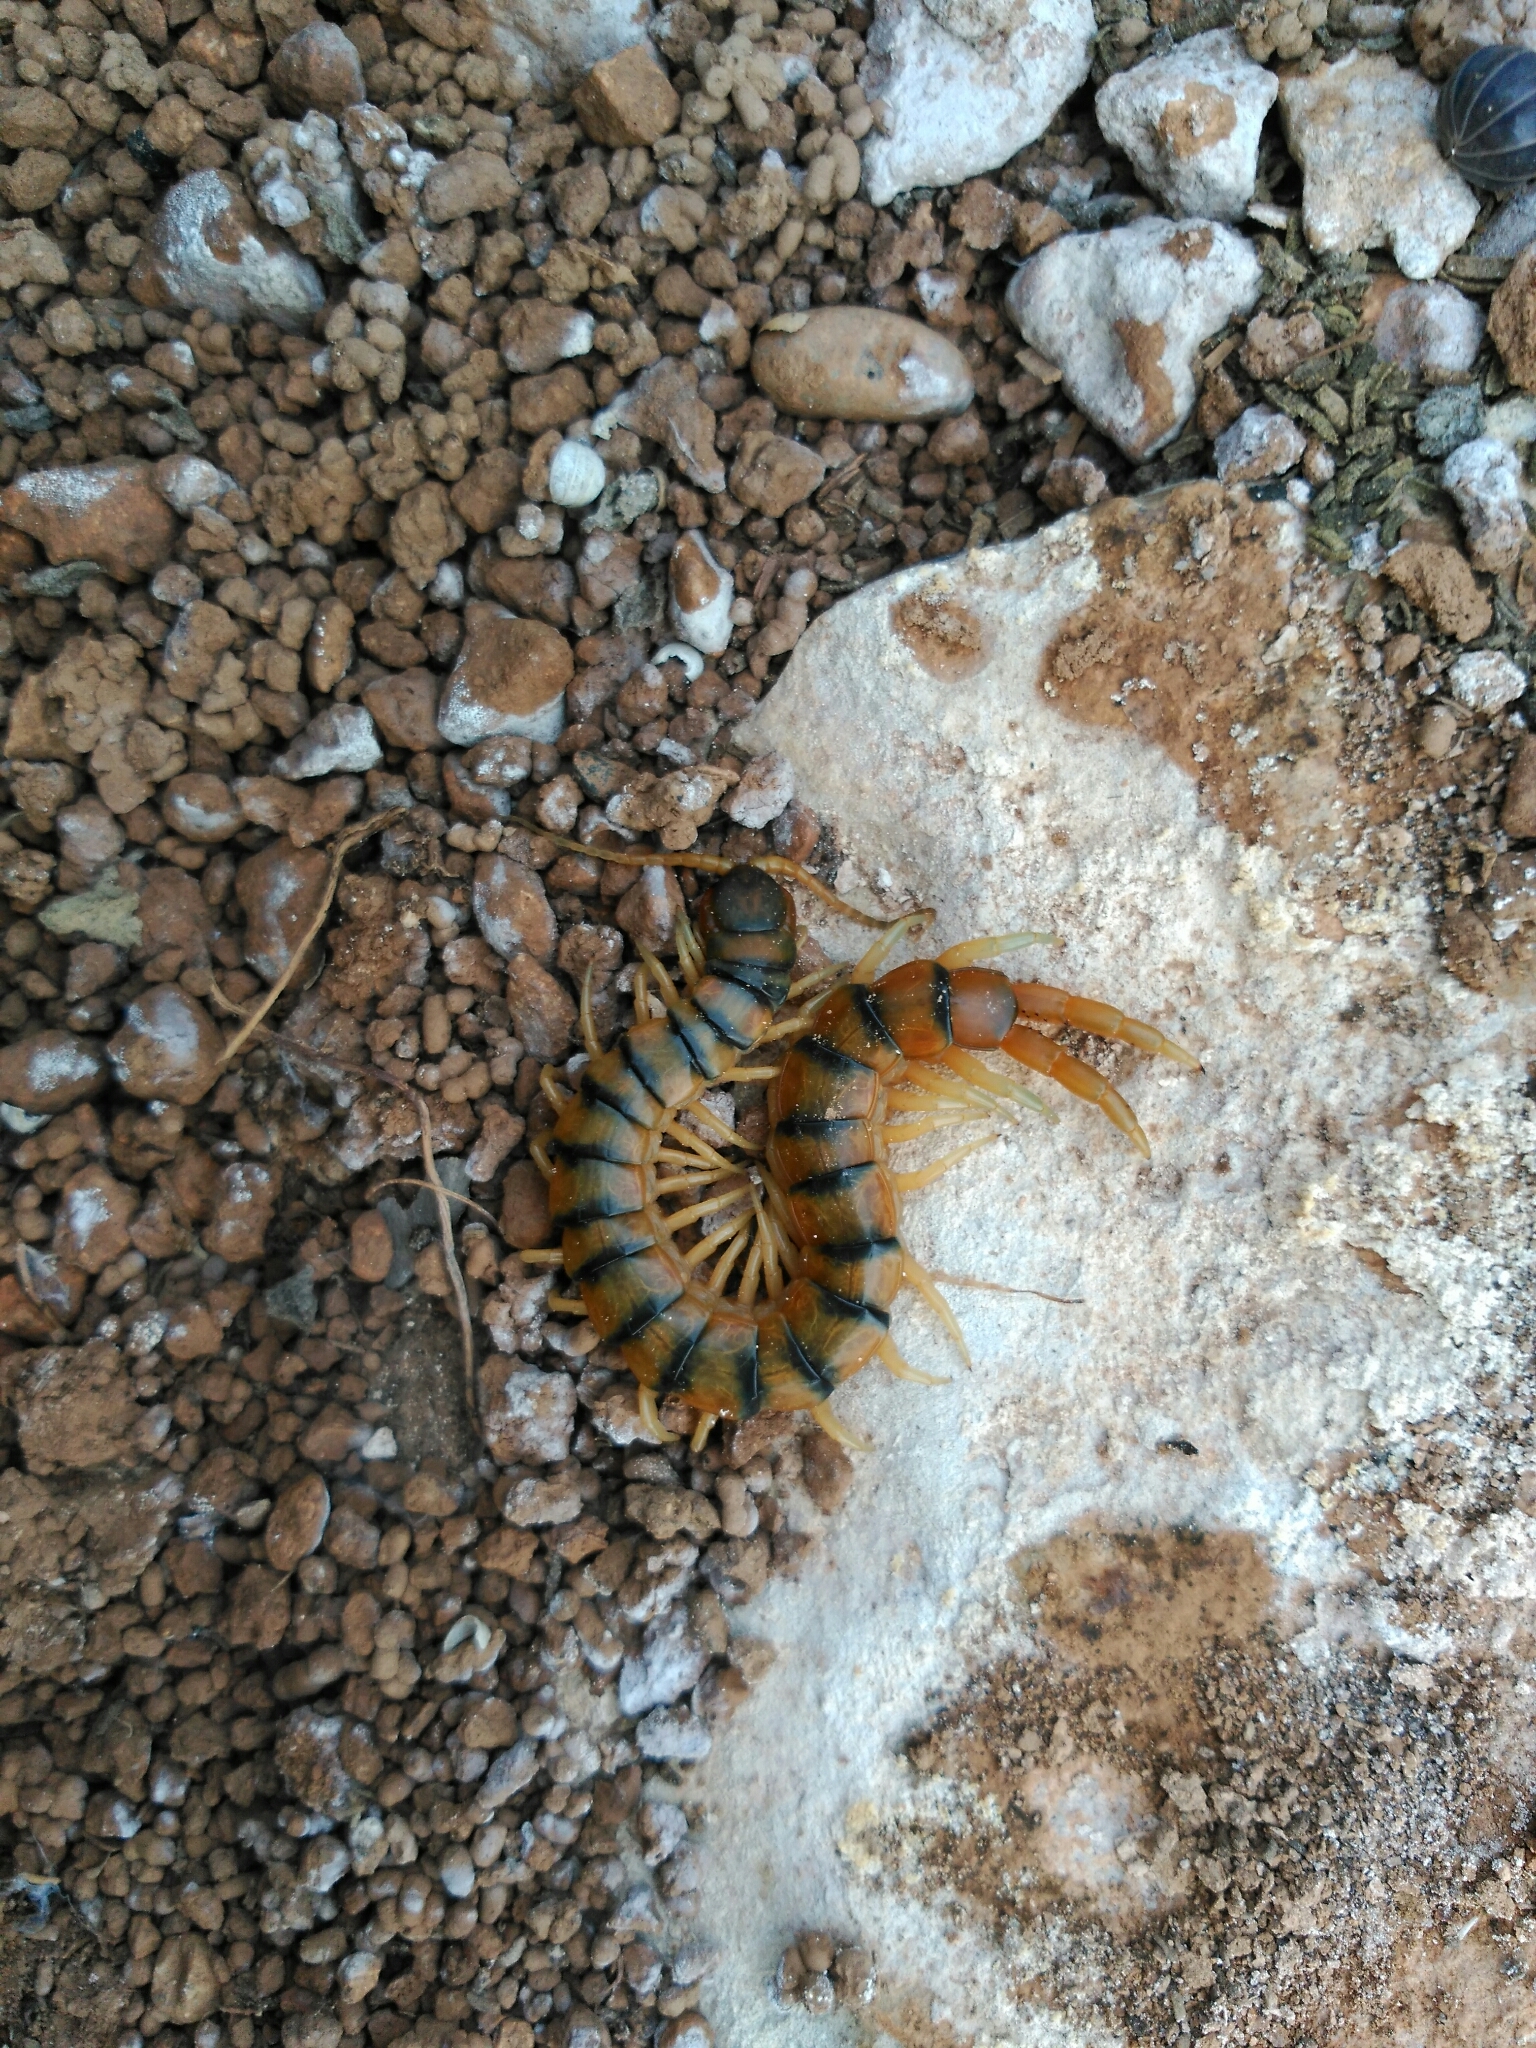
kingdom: Animalia
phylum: Arthropoda
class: Chilopoda
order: Scolopendromorpha
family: Scolopendridae
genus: Scolopendra
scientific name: Scolopendra cingulata
